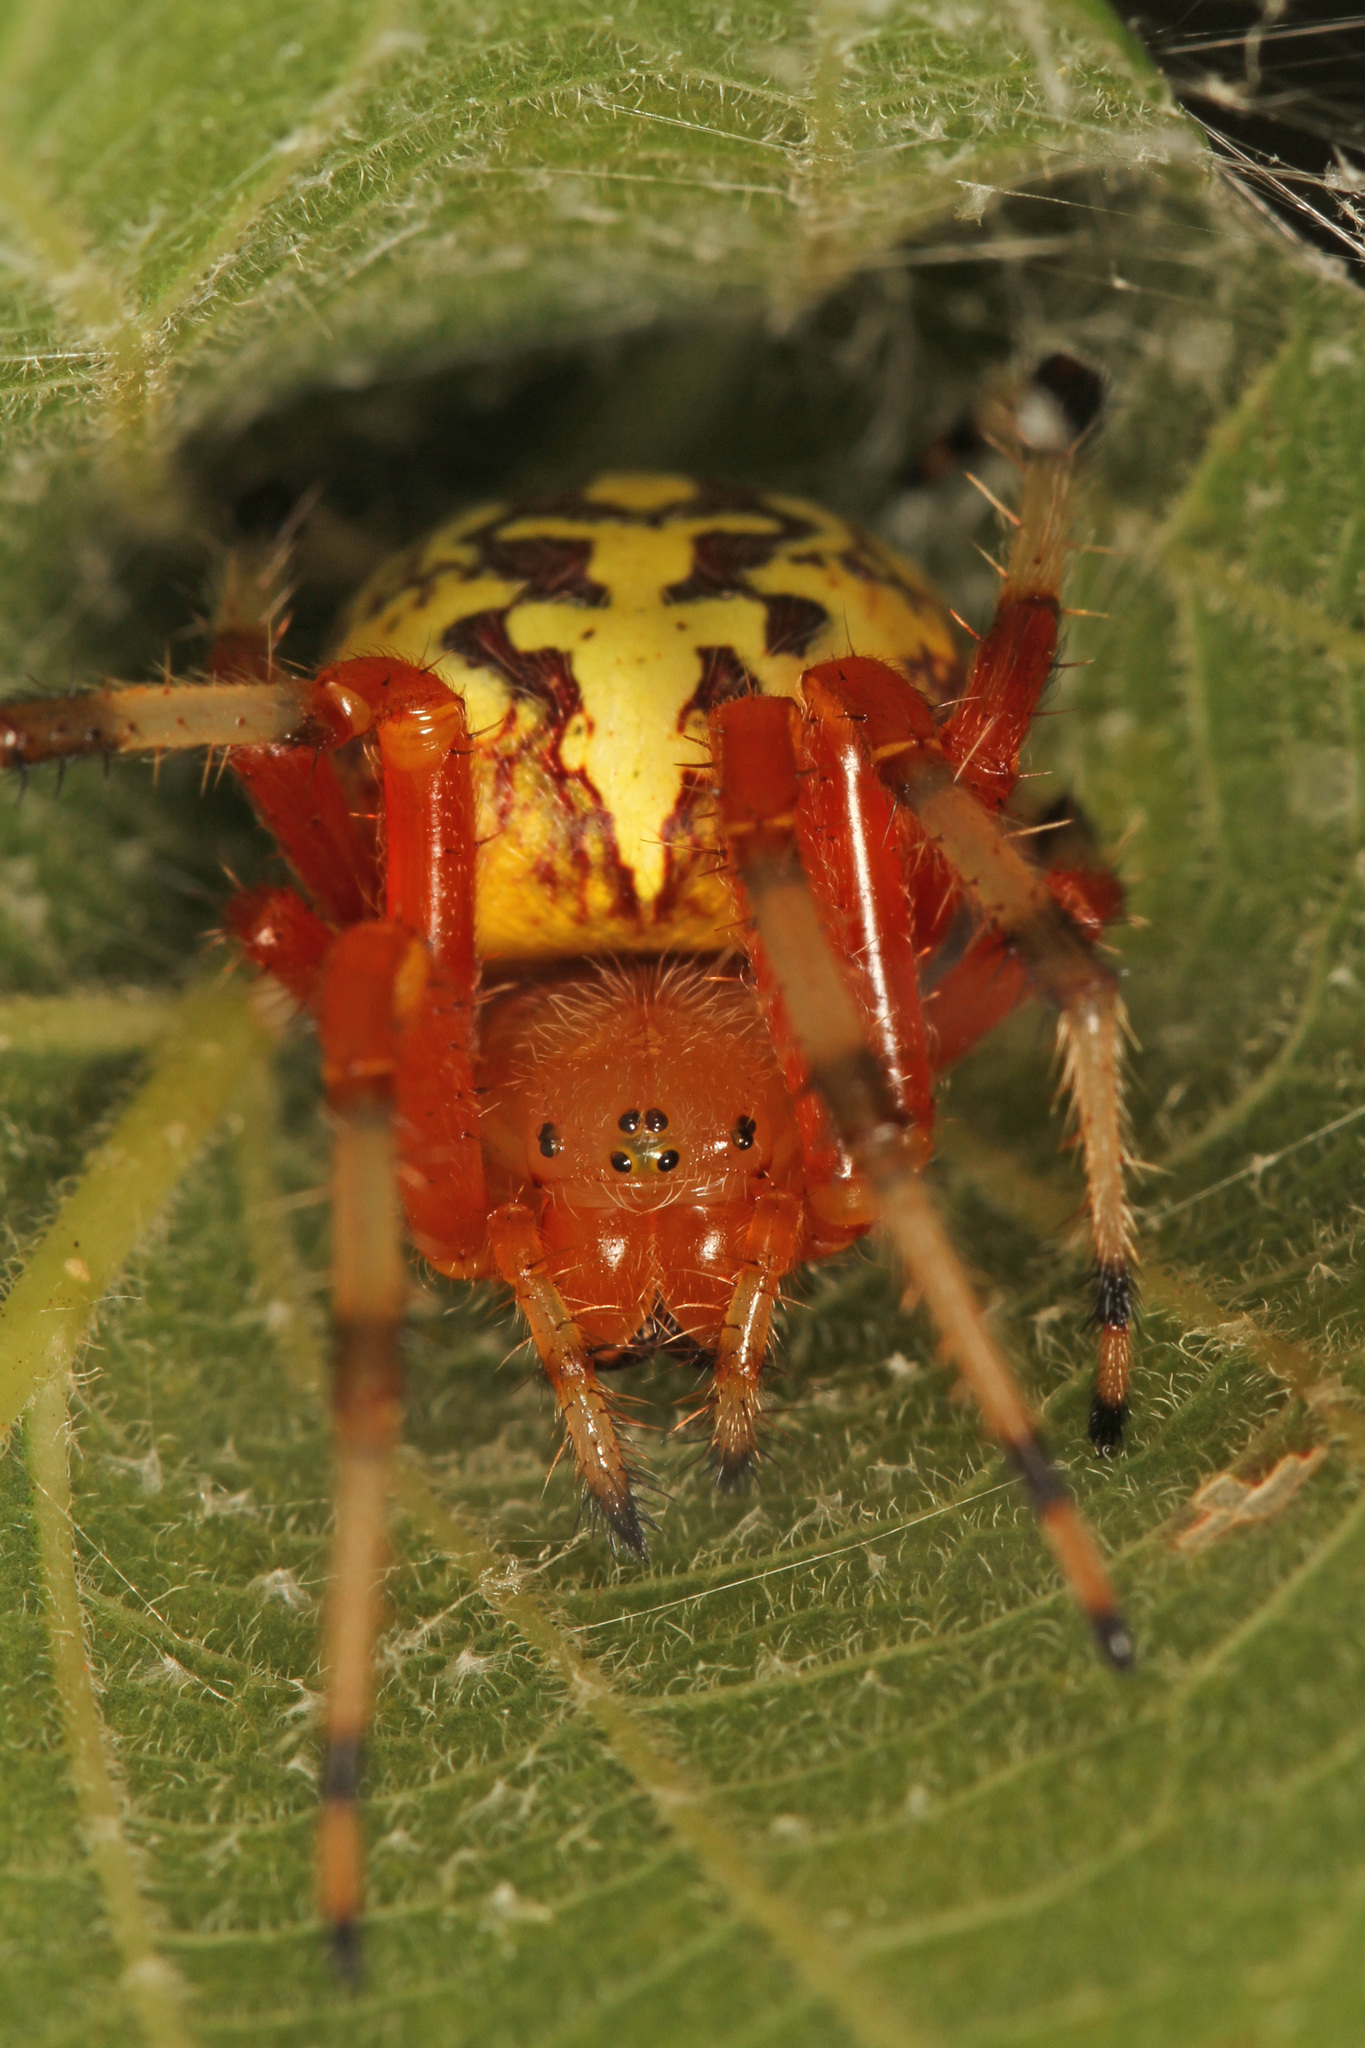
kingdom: Animalia
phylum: Arthropoda
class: Arachnida
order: Araneae
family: Araneidae
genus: Araneus
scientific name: Araneus marmoreus
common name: Marbled orbweaver
